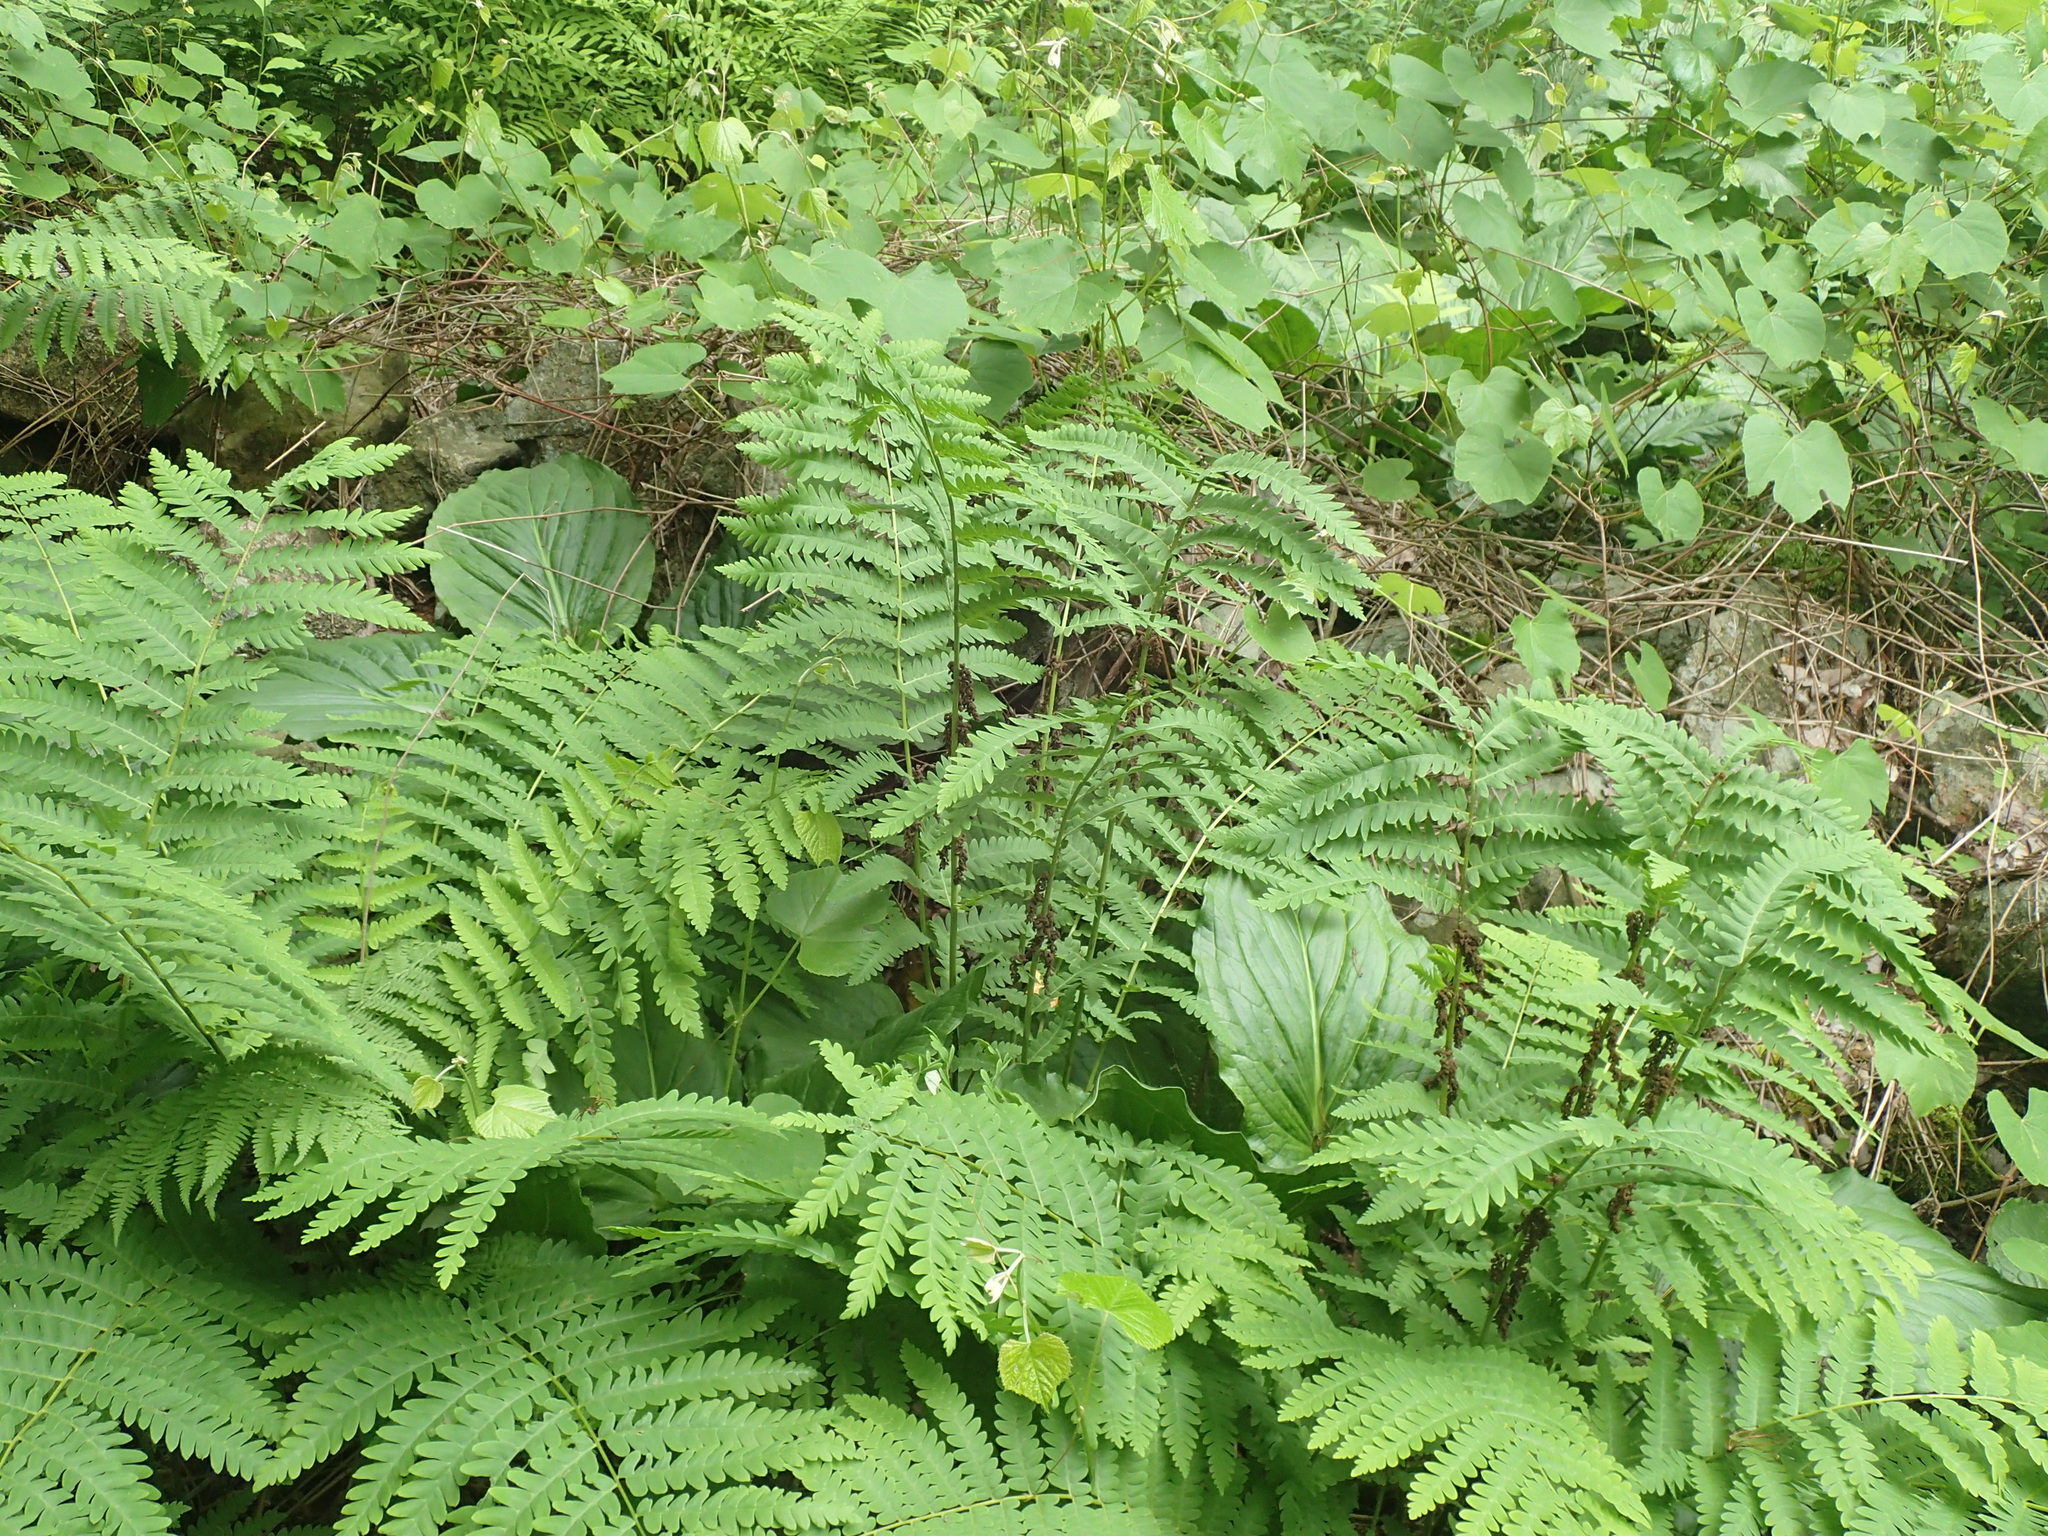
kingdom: Plantae
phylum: Tracheophyta
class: Polypodiopsida
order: Osmundales
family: Osmundaceae
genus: Claytosmunda
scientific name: Claytosmunda claytoniana
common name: Clayton's fern
